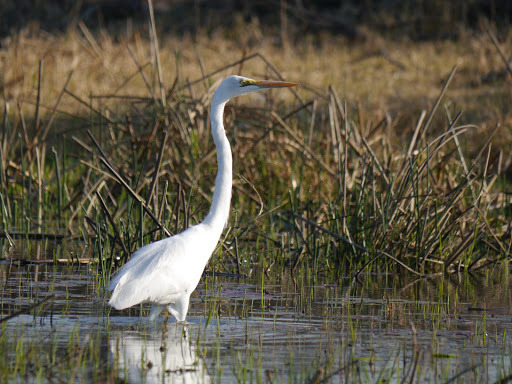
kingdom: Animalia
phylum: Chordata
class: Aves
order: Pelecaniformes
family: Ardeidae
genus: Ardea
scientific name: Ardea alba
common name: Great egret
